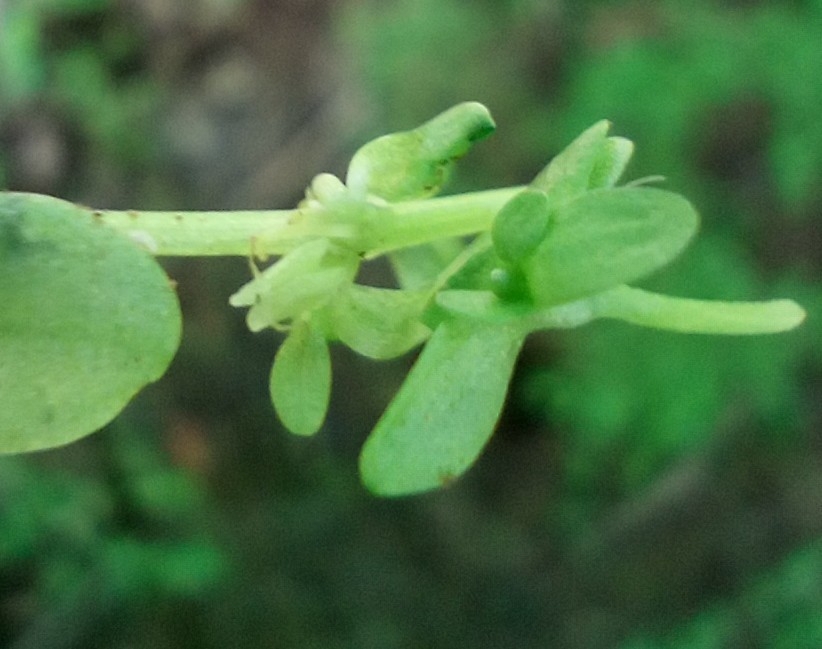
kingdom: Plantae
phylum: Tracheophyta
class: Magnoliopsida
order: Lamiales
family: Plantaginaceae
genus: Callitriche
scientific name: Callitriche stagnalis
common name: Common water-starwort
